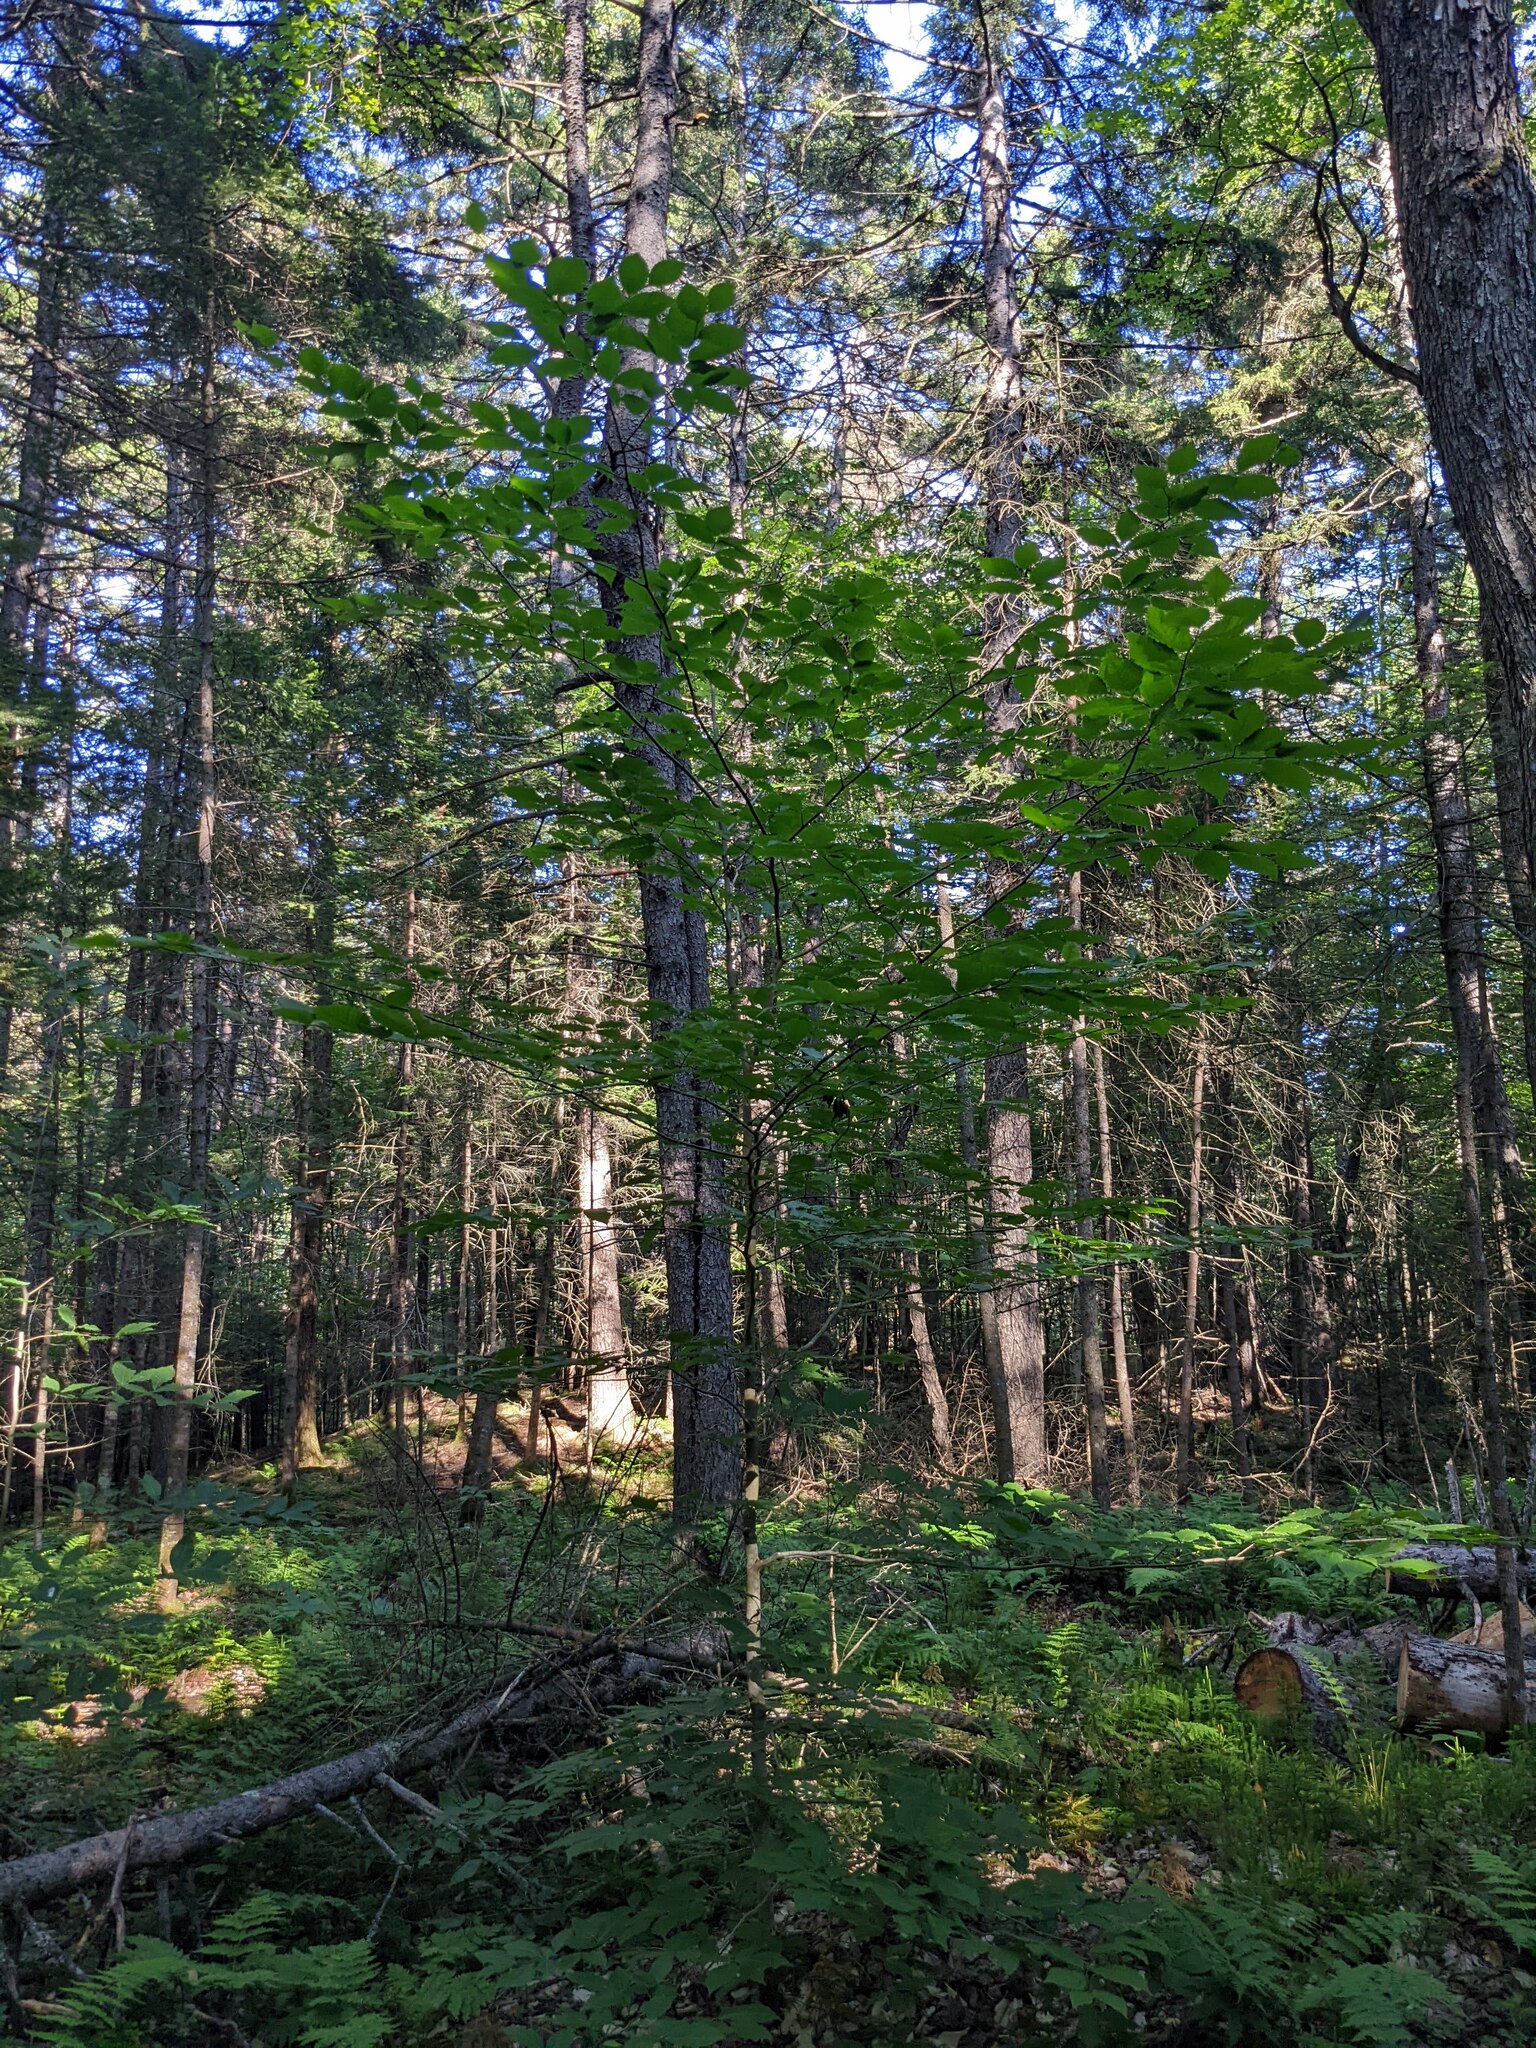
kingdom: Plantae
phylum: Tracheophyta
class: Magnoliopsida
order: Fagales
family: Fagaceae
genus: Fagus
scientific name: Fagus grandifolia
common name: American beech
